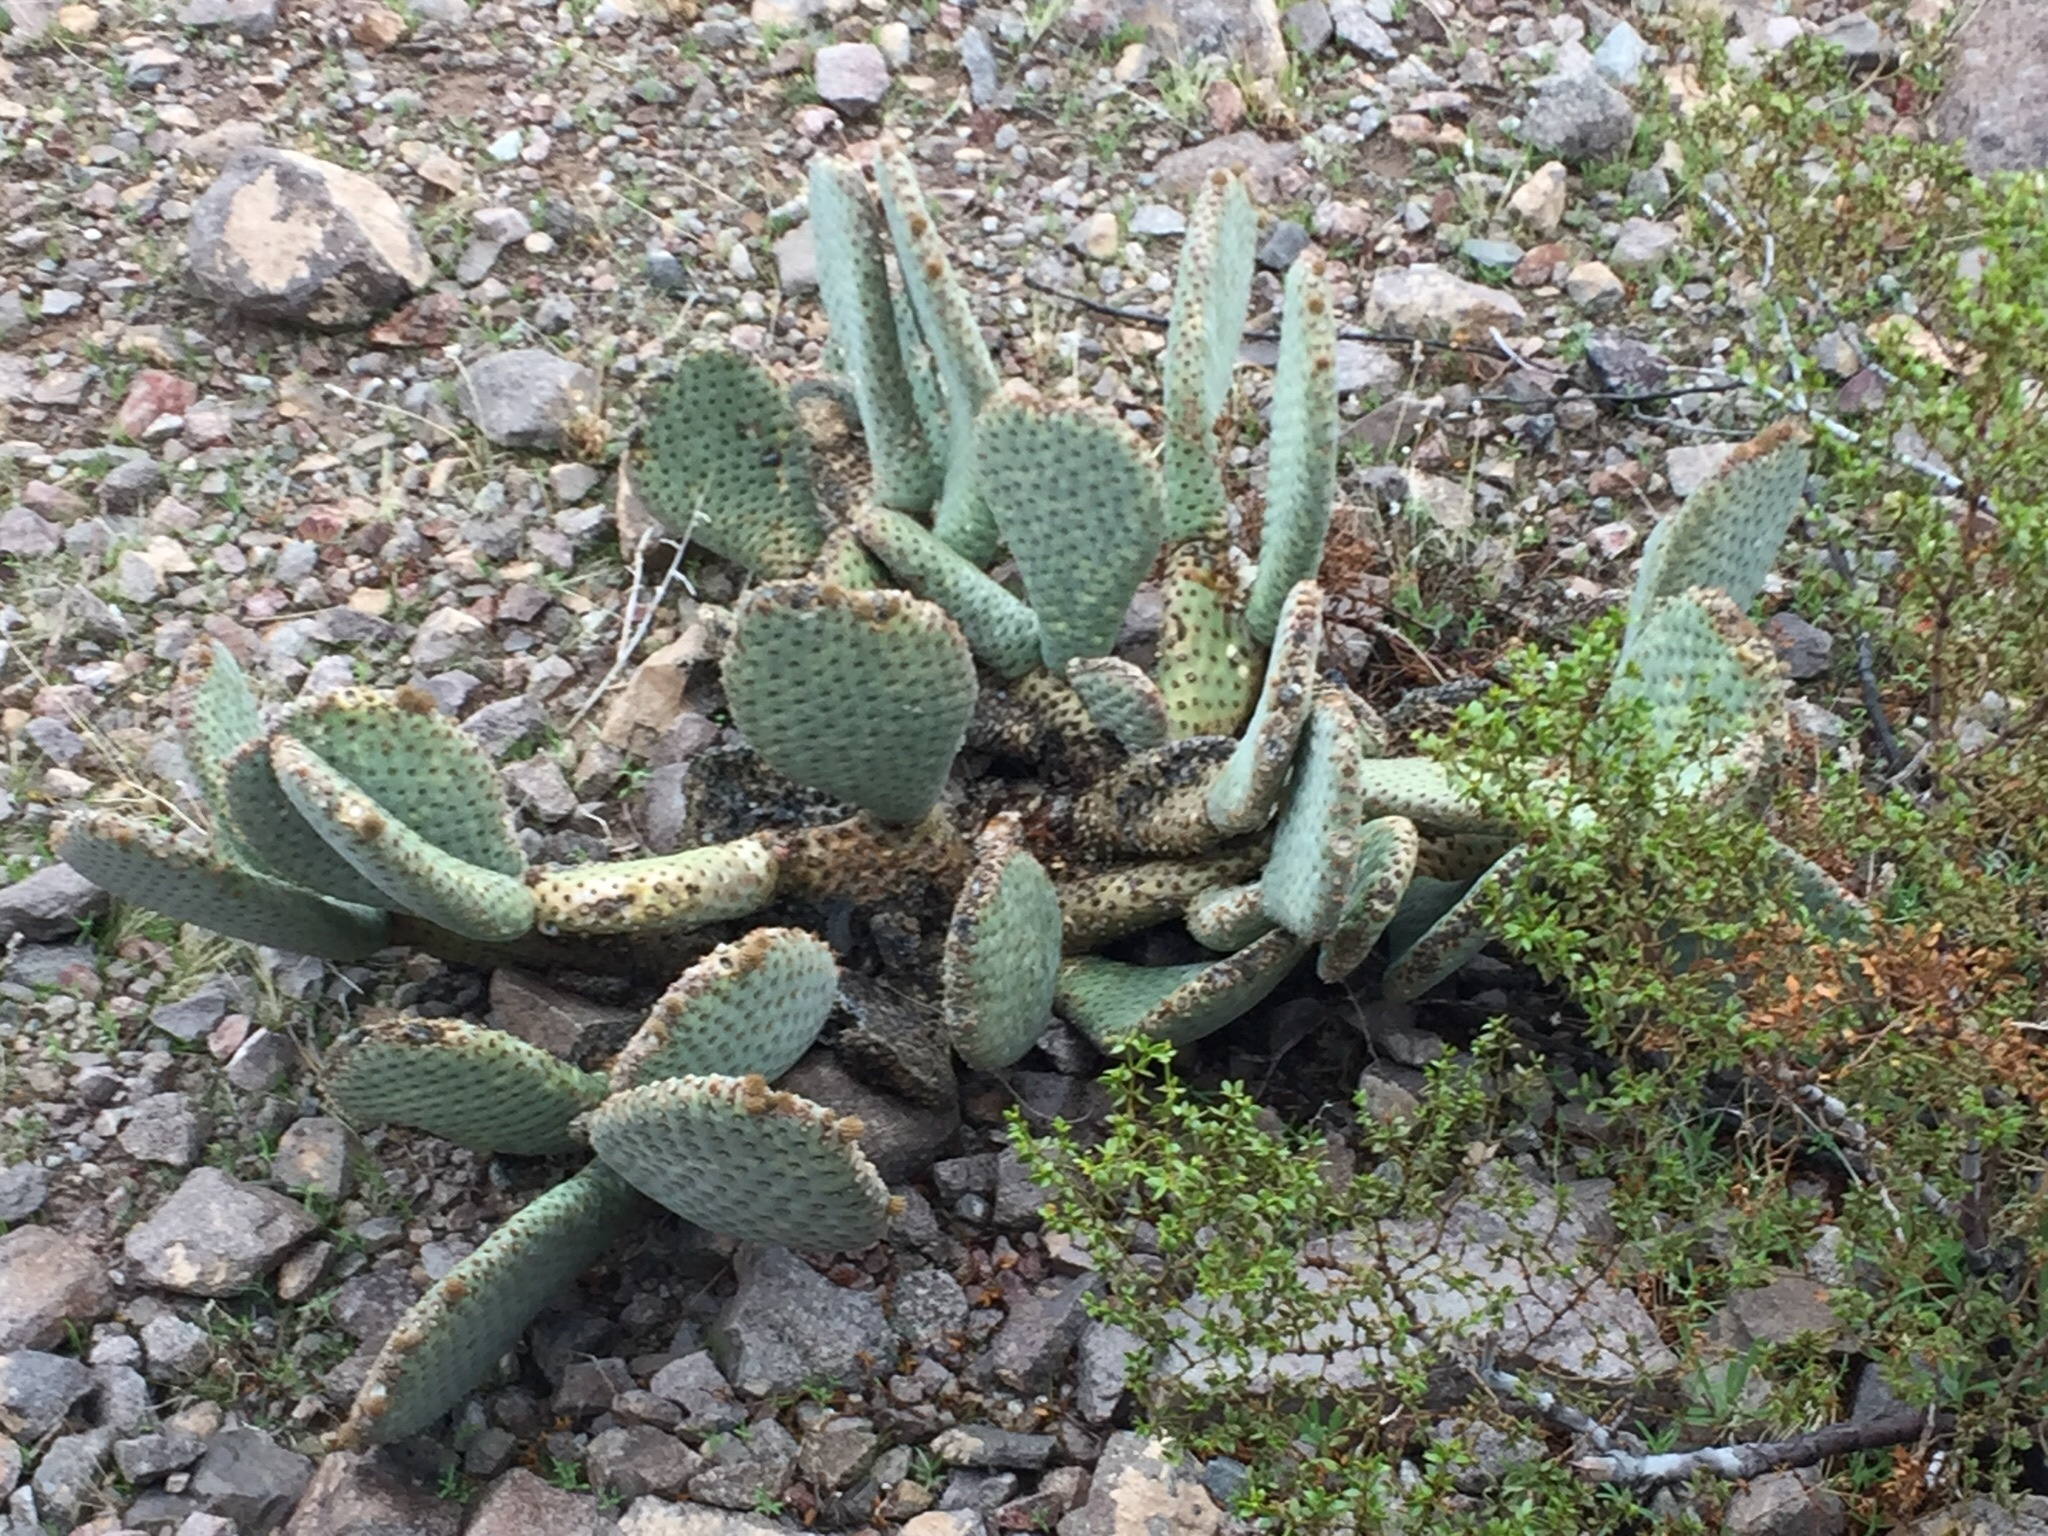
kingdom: Plantae
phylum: Tracheophyta
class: Magnoliopsida
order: Caryophyllales
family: Cactaceae
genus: Opuntia
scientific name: Opuntia basilaris
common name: Beavertail prickly-pear
